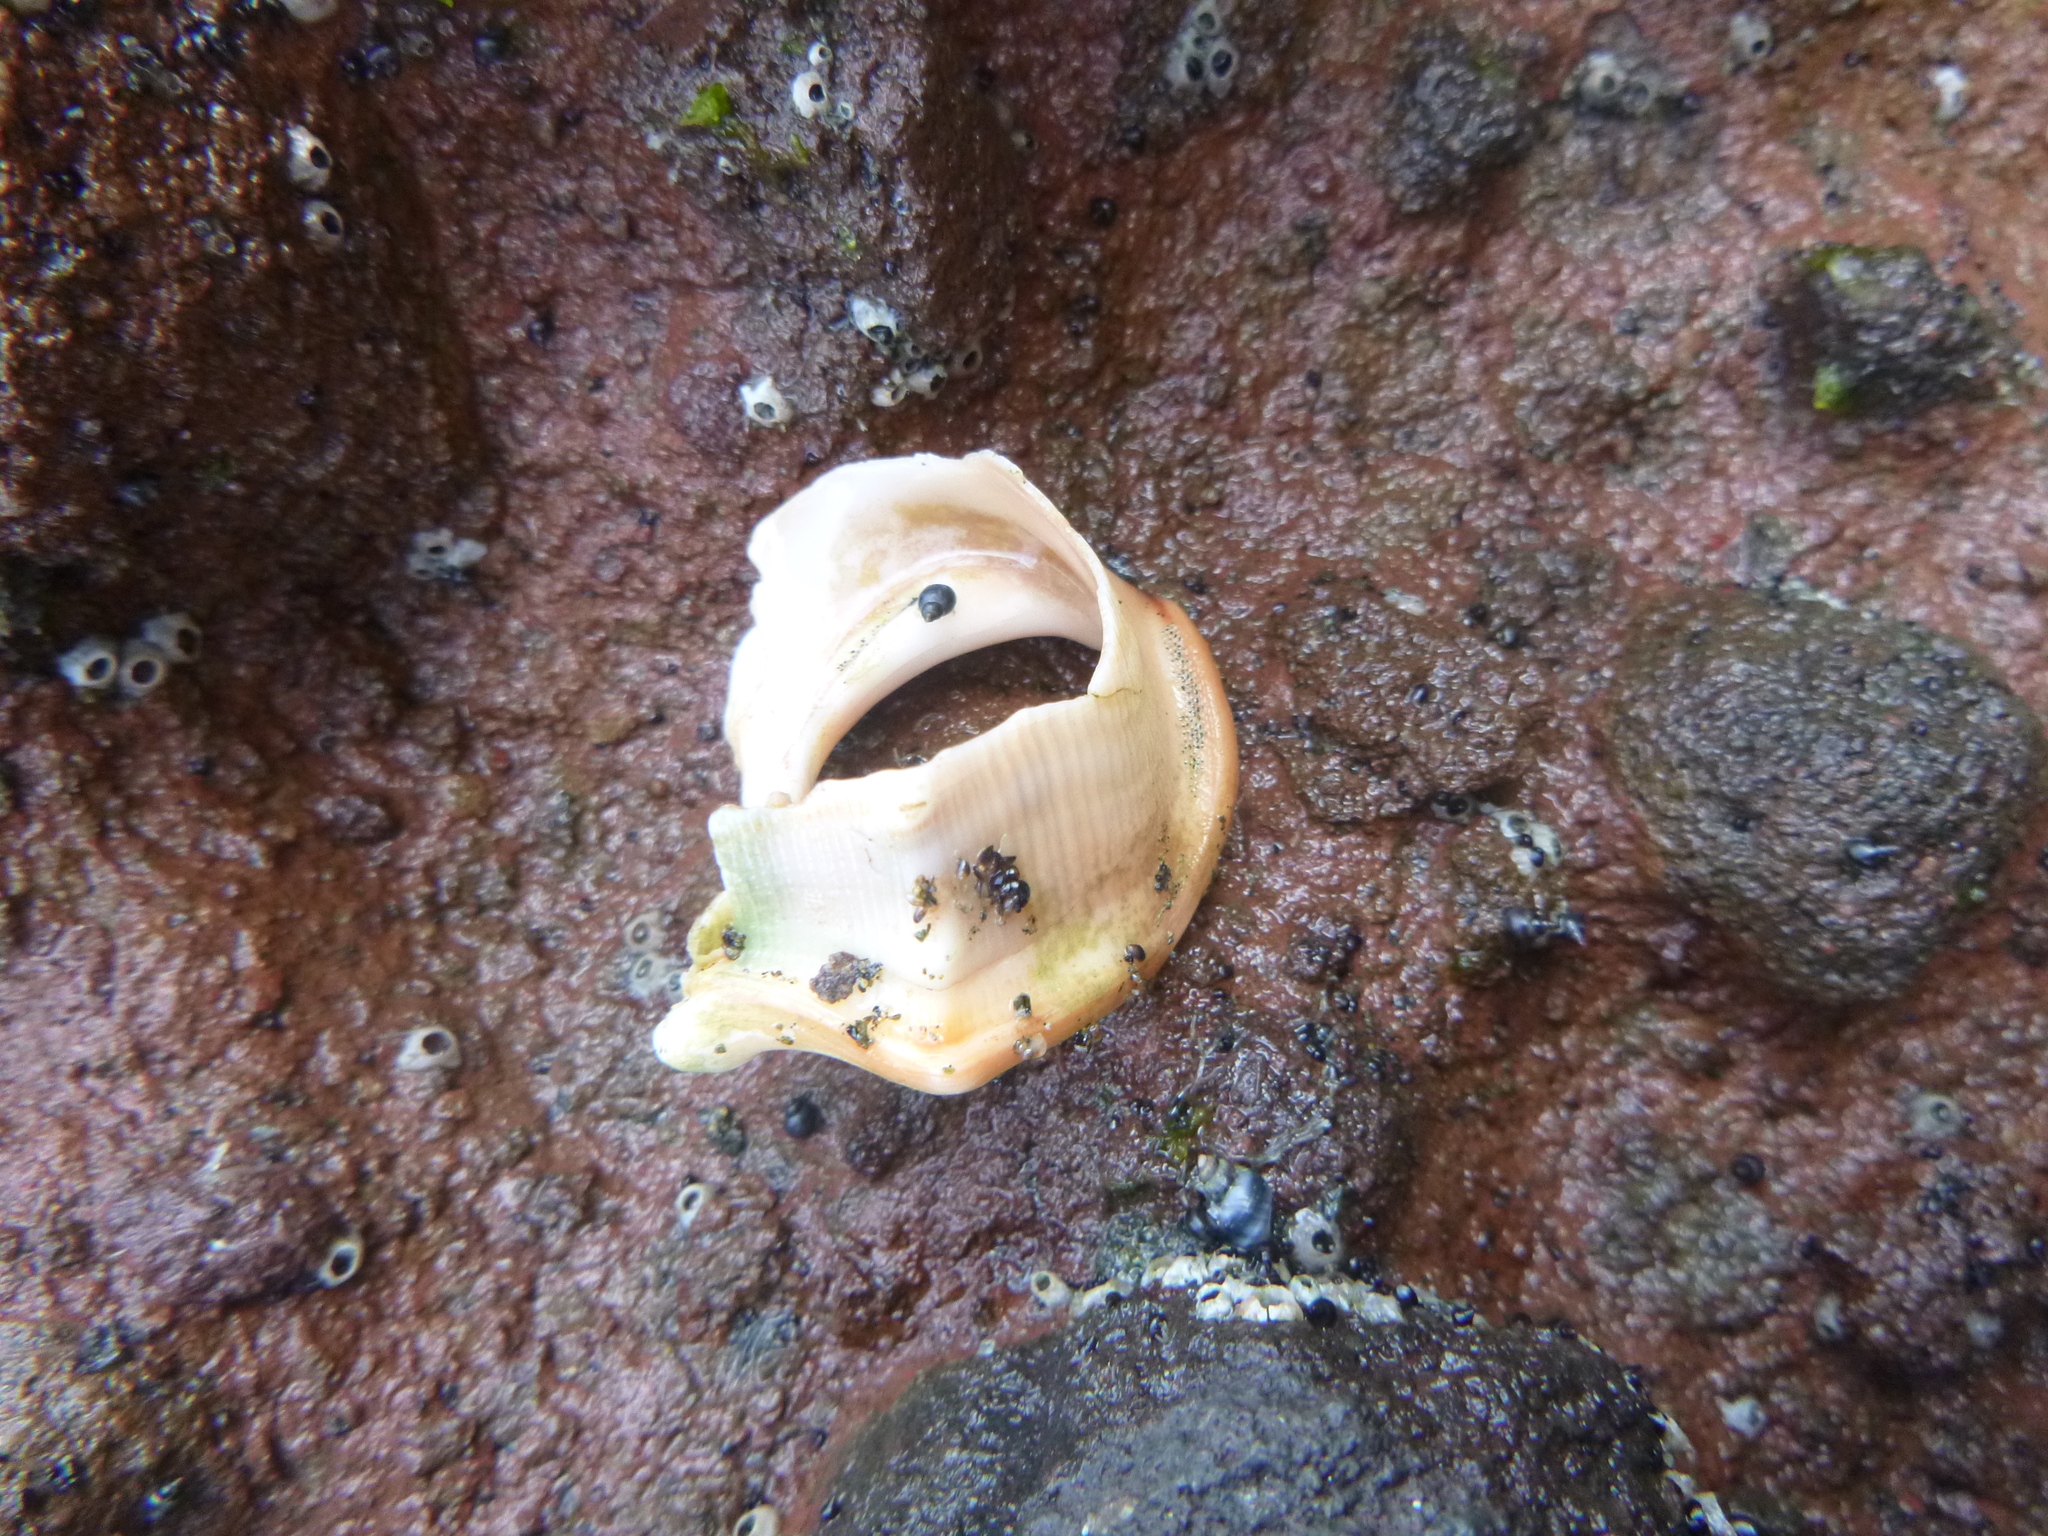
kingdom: Animalia
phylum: Mollusca
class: Gastropoda
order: Littorinimorpha
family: Struthiolariidae
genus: Struthiolaria
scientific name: Struthiolaria papulosa
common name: Large ostrich foot
